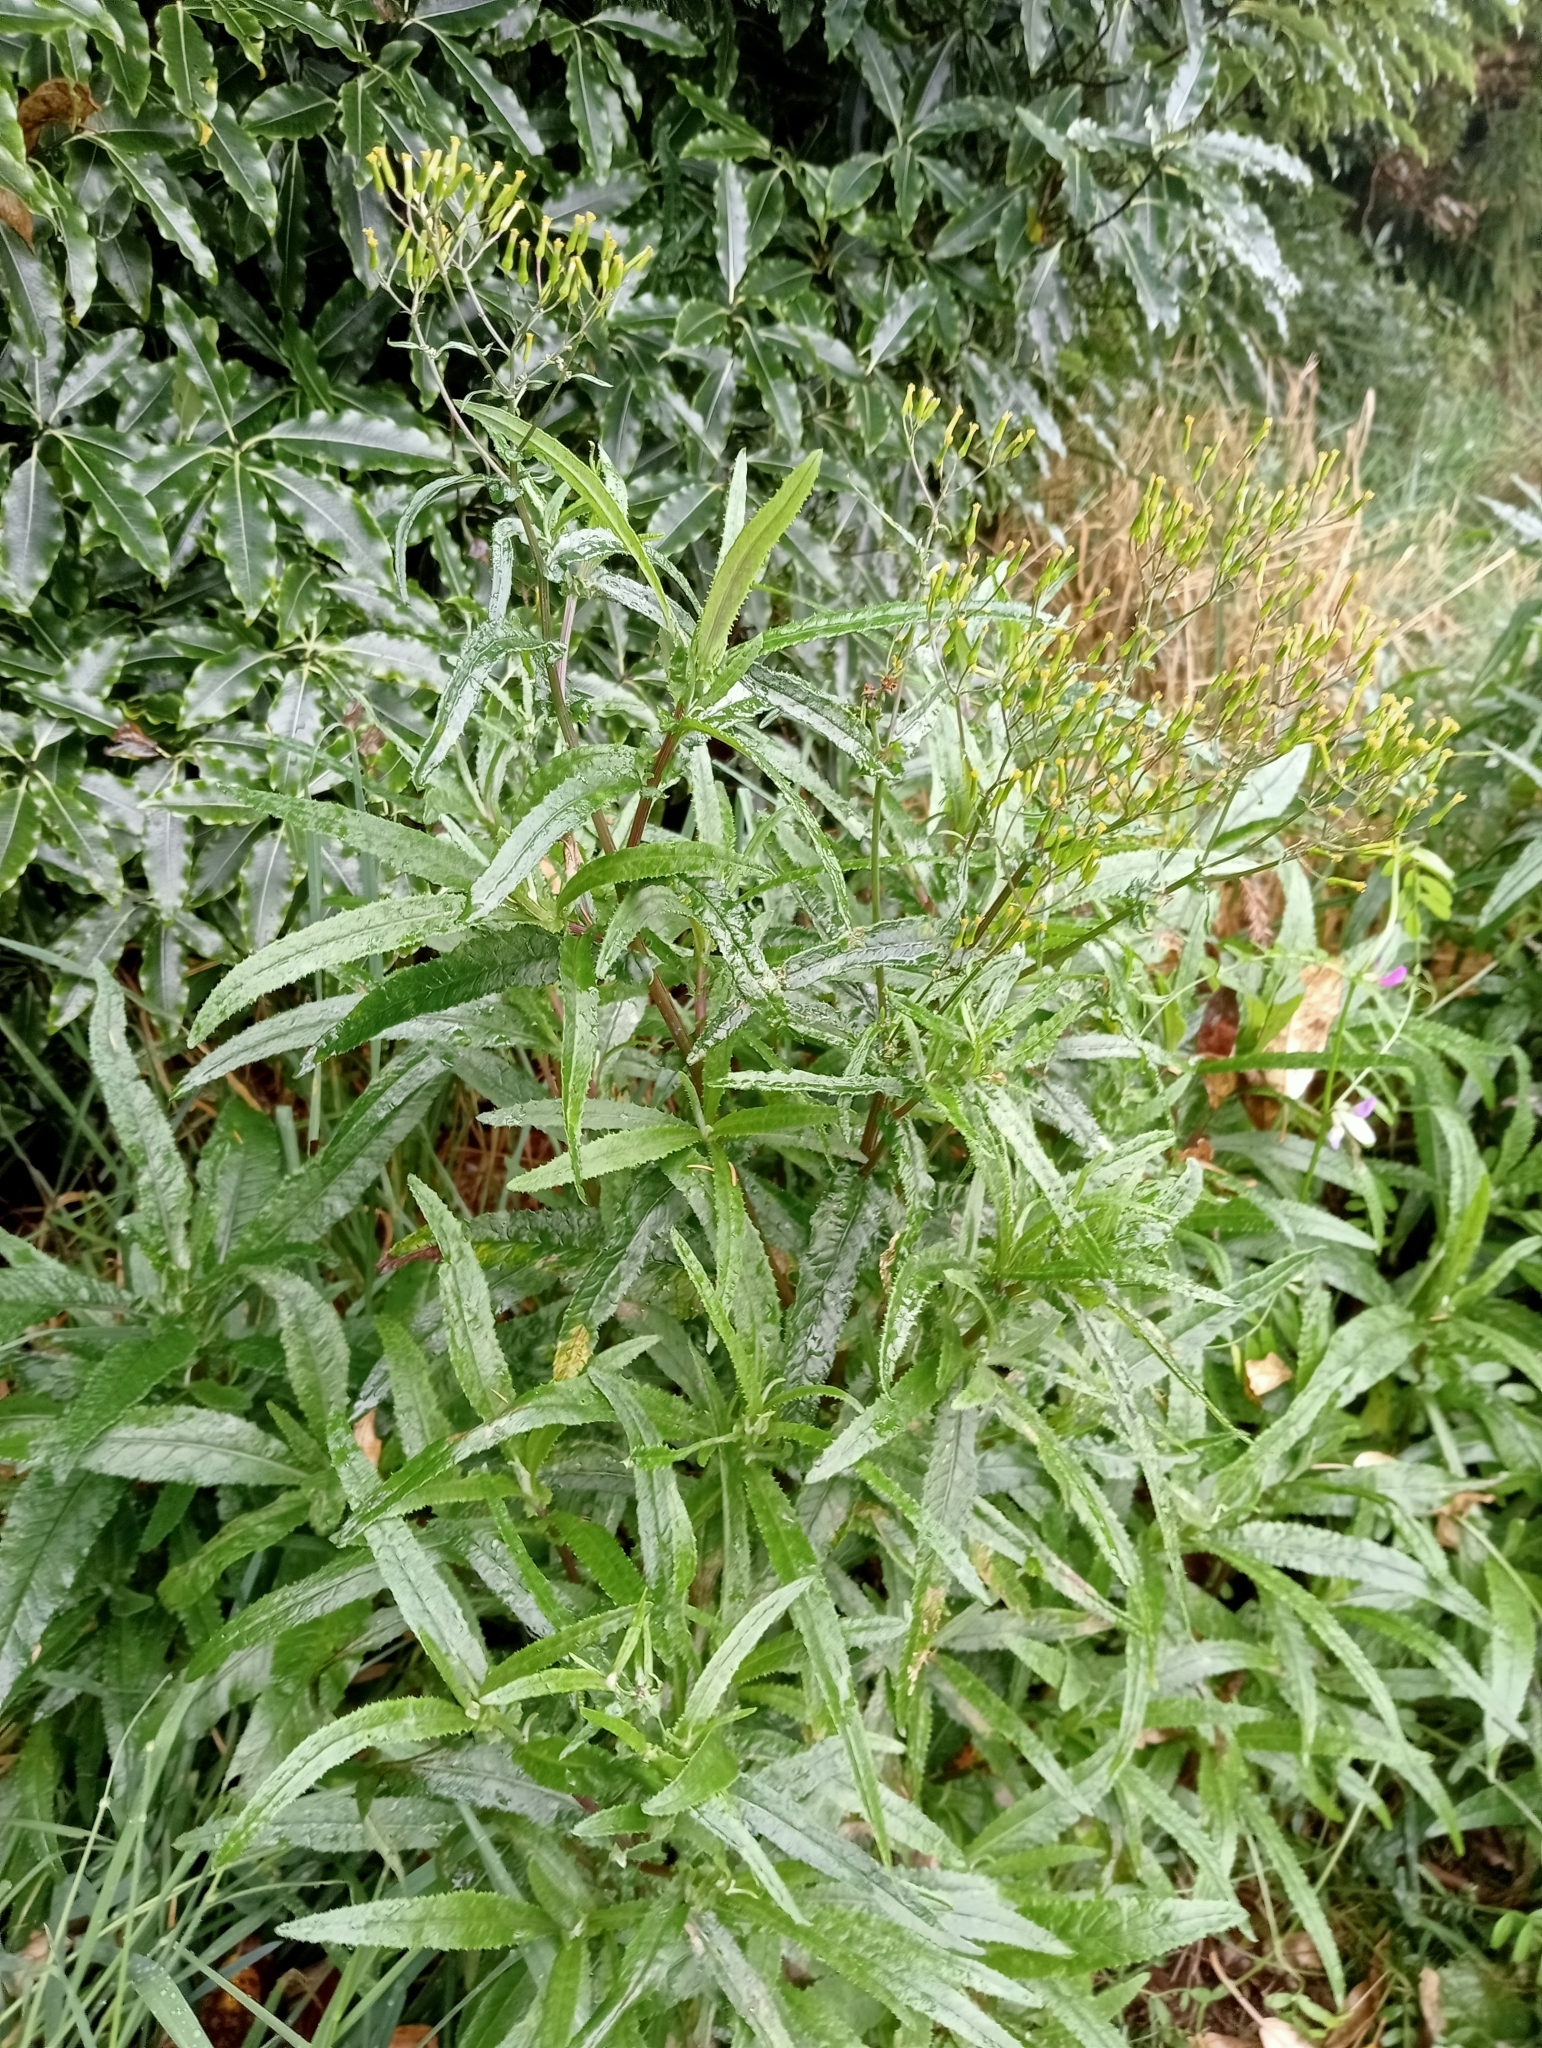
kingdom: Plantae
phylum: Tracheophyta
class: Magnoliopsida
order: Asterales
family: Asteraceae
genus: Senecio
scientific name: Senecio minimus
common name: Toothed fireweed
